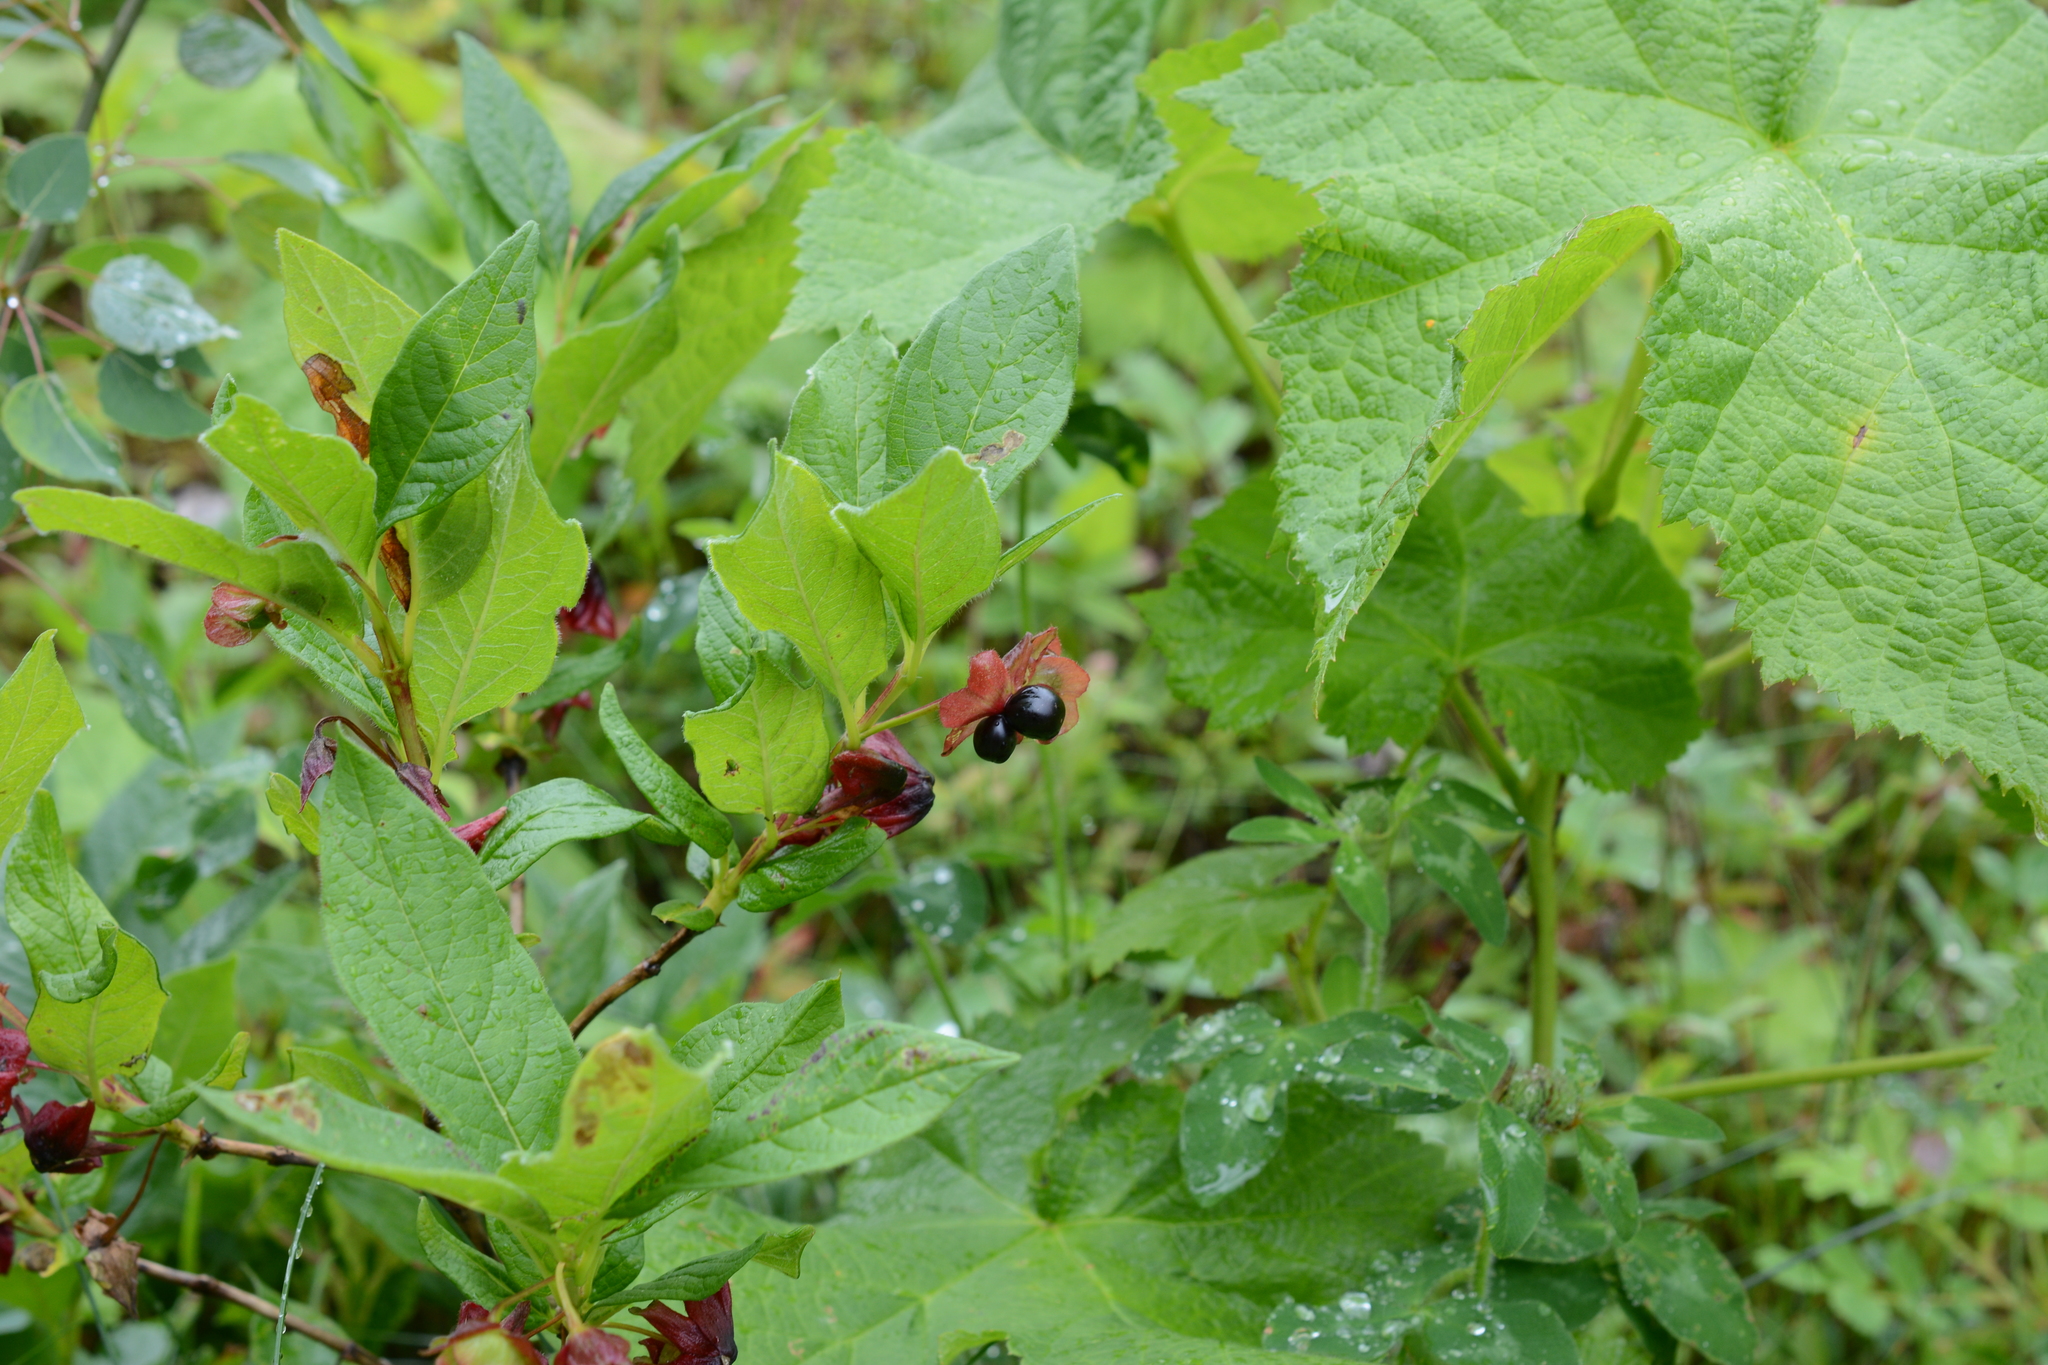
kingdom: Plantae
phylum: Tracheophyta
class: Magnoliopsida
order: Dipsacales
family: Caprifoliaceae
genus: Lonicera
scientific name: Lonicera involucrata
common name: Californian honeysuckle
